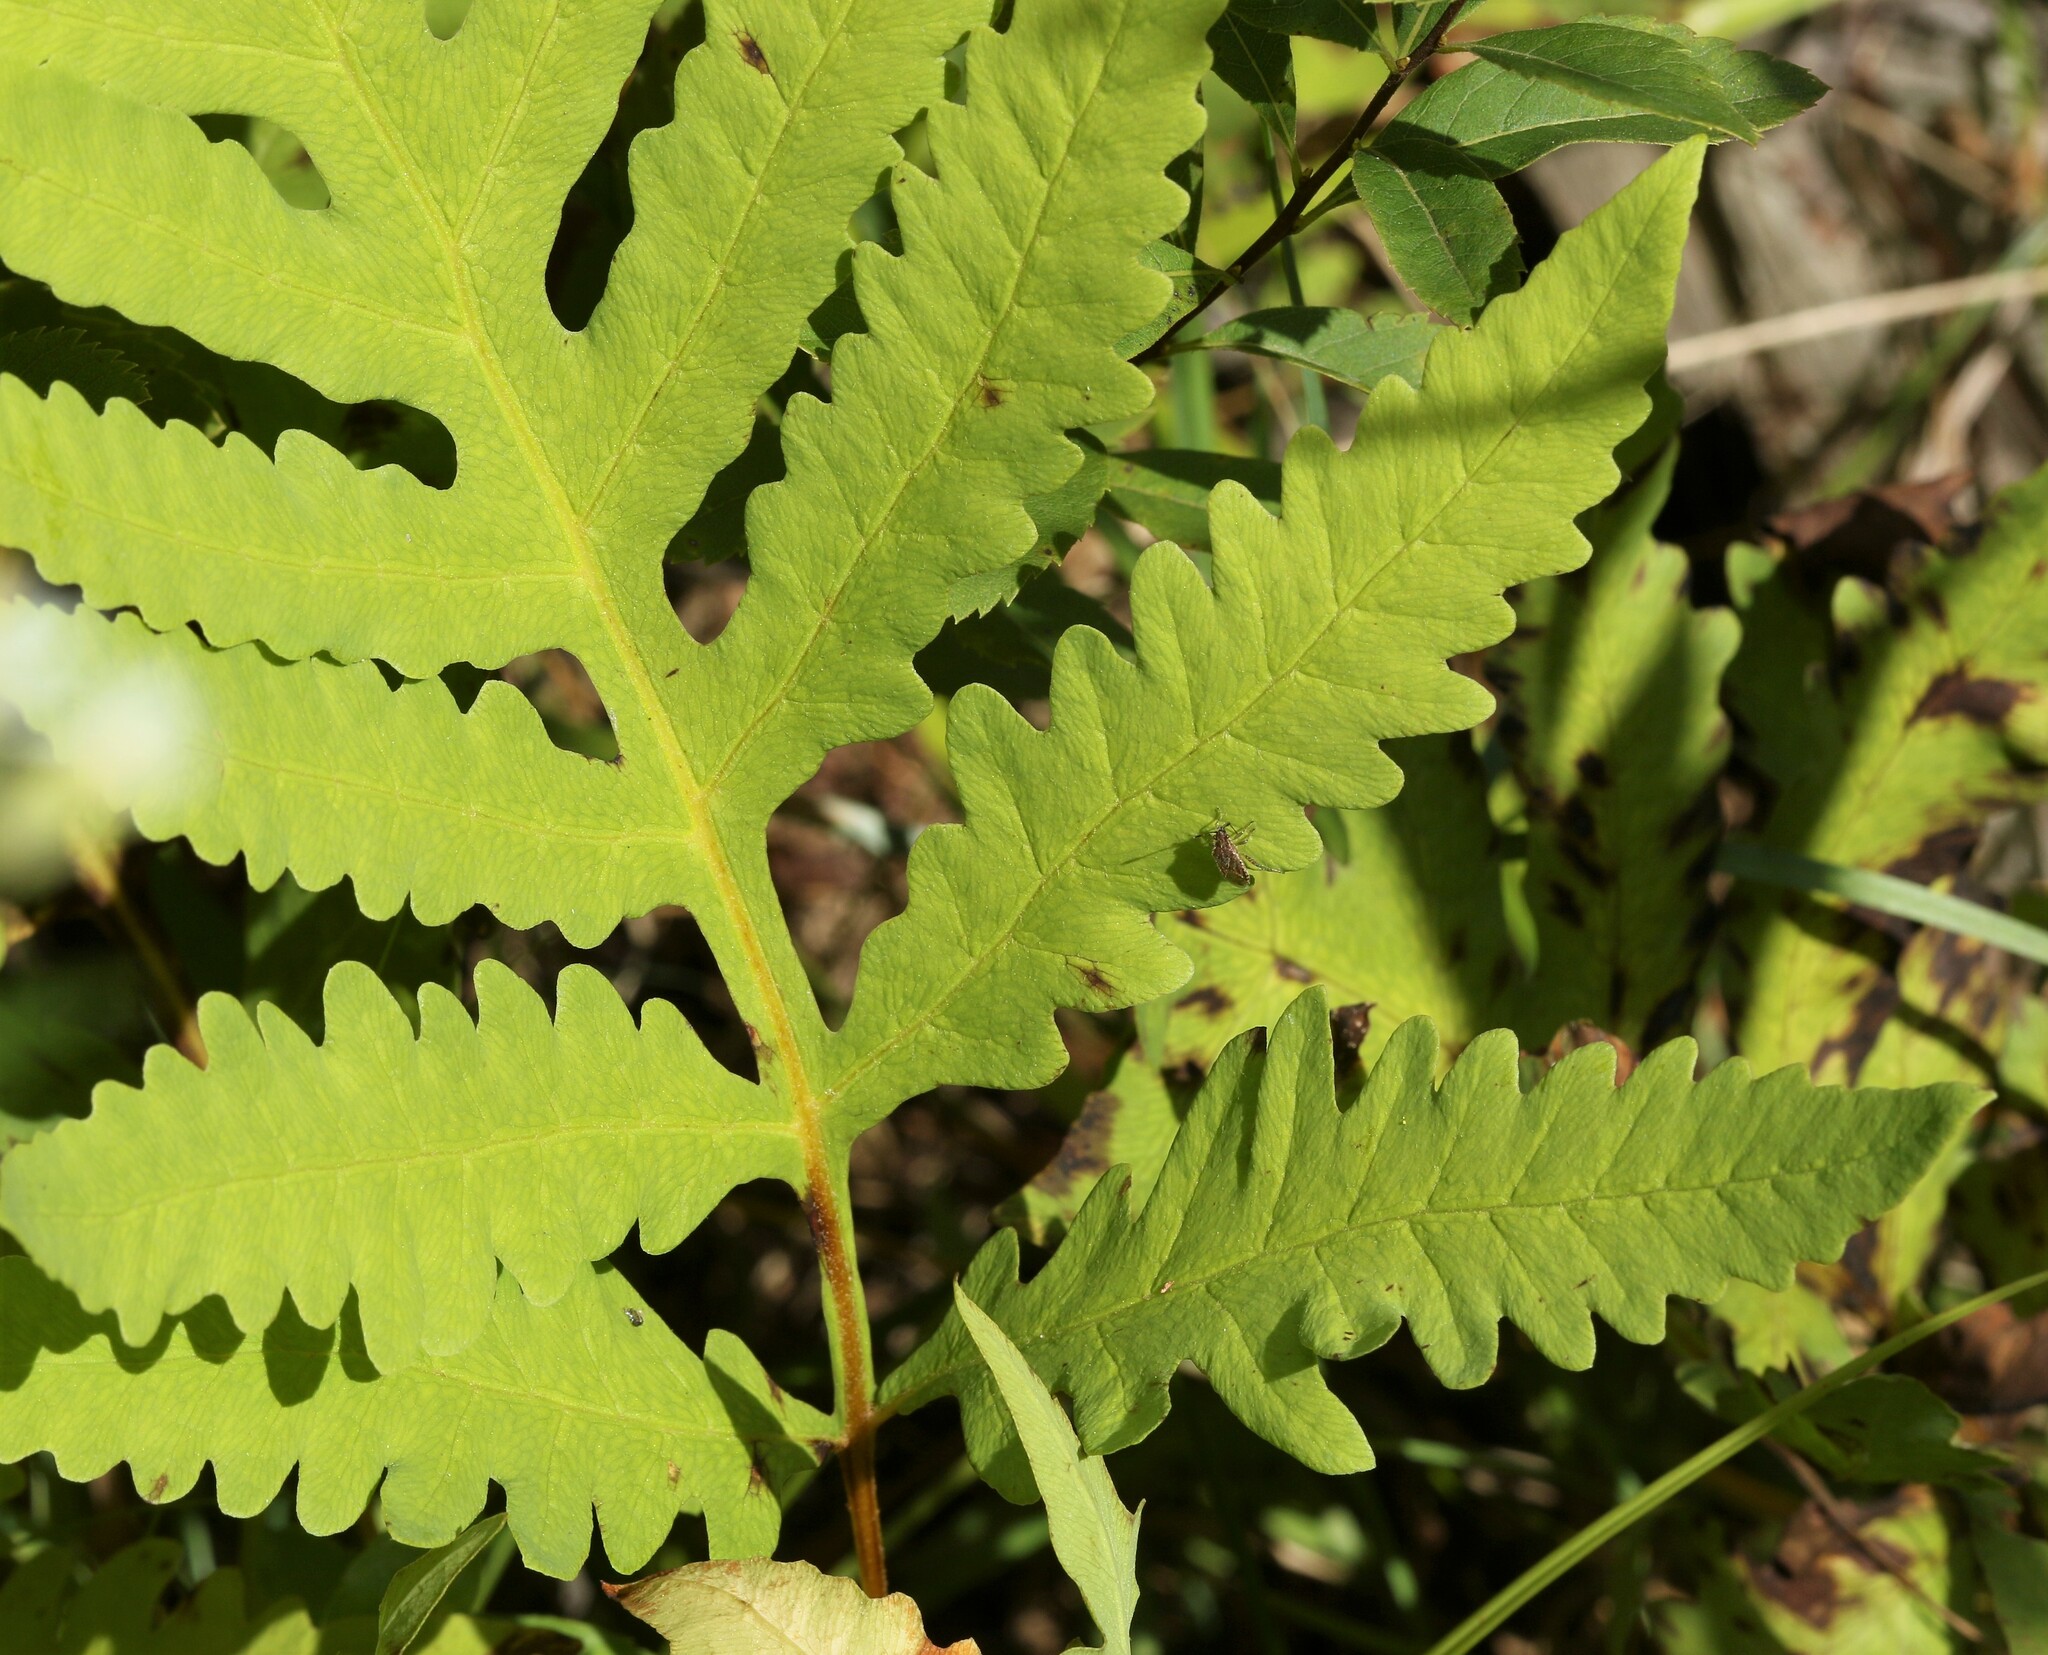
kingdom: Plantae
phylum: Tracheophyta
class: Polypodiopsida
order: Polypodiales
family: Onocleaceae
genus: Onoclea
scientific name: Onoclea sensibilis
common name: Sensitive fern
